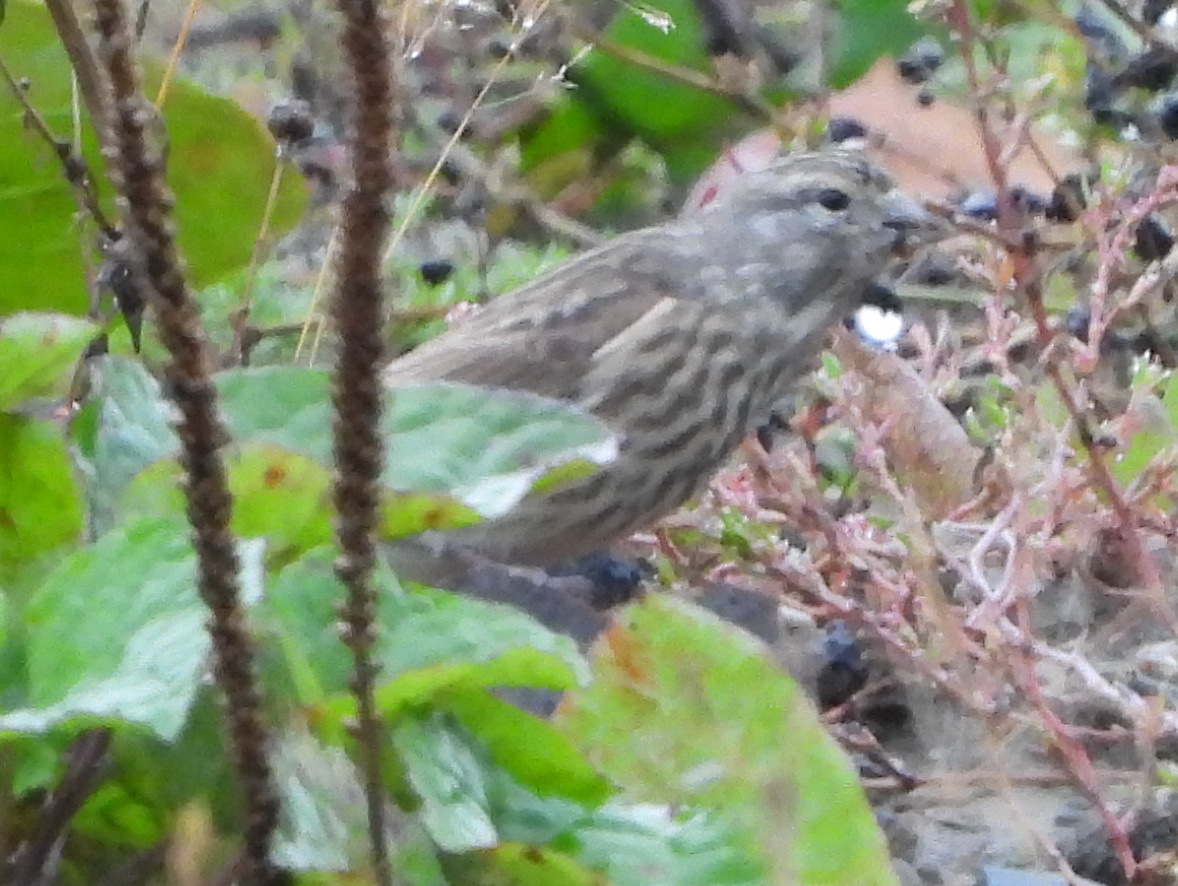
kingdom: Animalia
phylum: Chordata
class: Aves
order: Passeriformes
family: Fringillidae
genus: Linaria
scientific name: Linaria cannabina
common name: Common linnet
